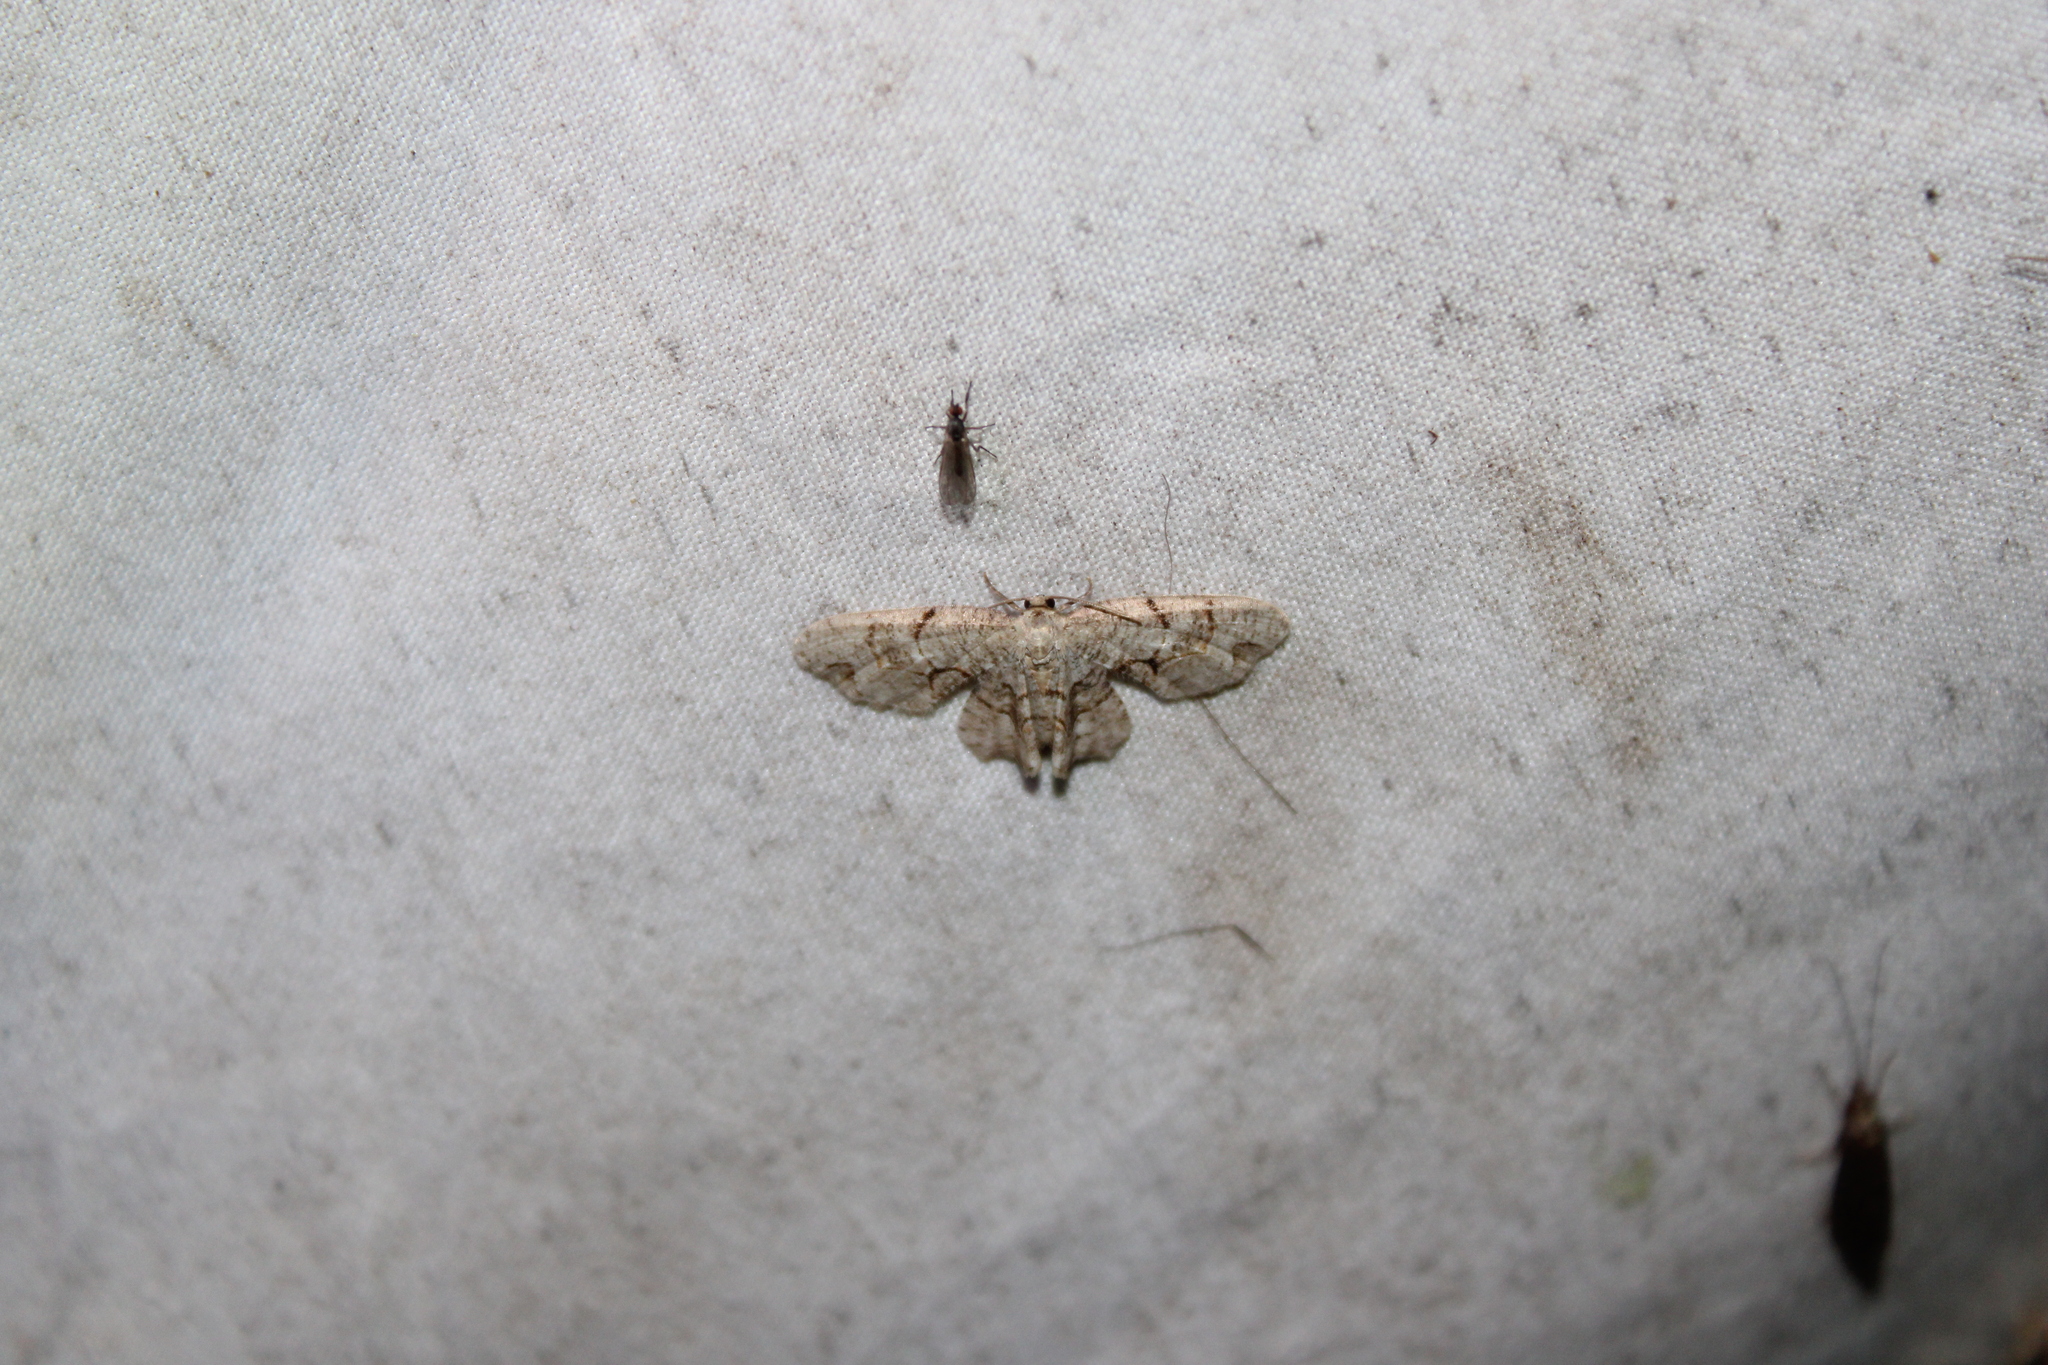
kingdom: Animalia
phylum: Arthropoda
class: Insecta
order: Lepidoptera
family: Uraniidae
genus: Epiplema
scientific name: Epiplema Callizzia amorata
